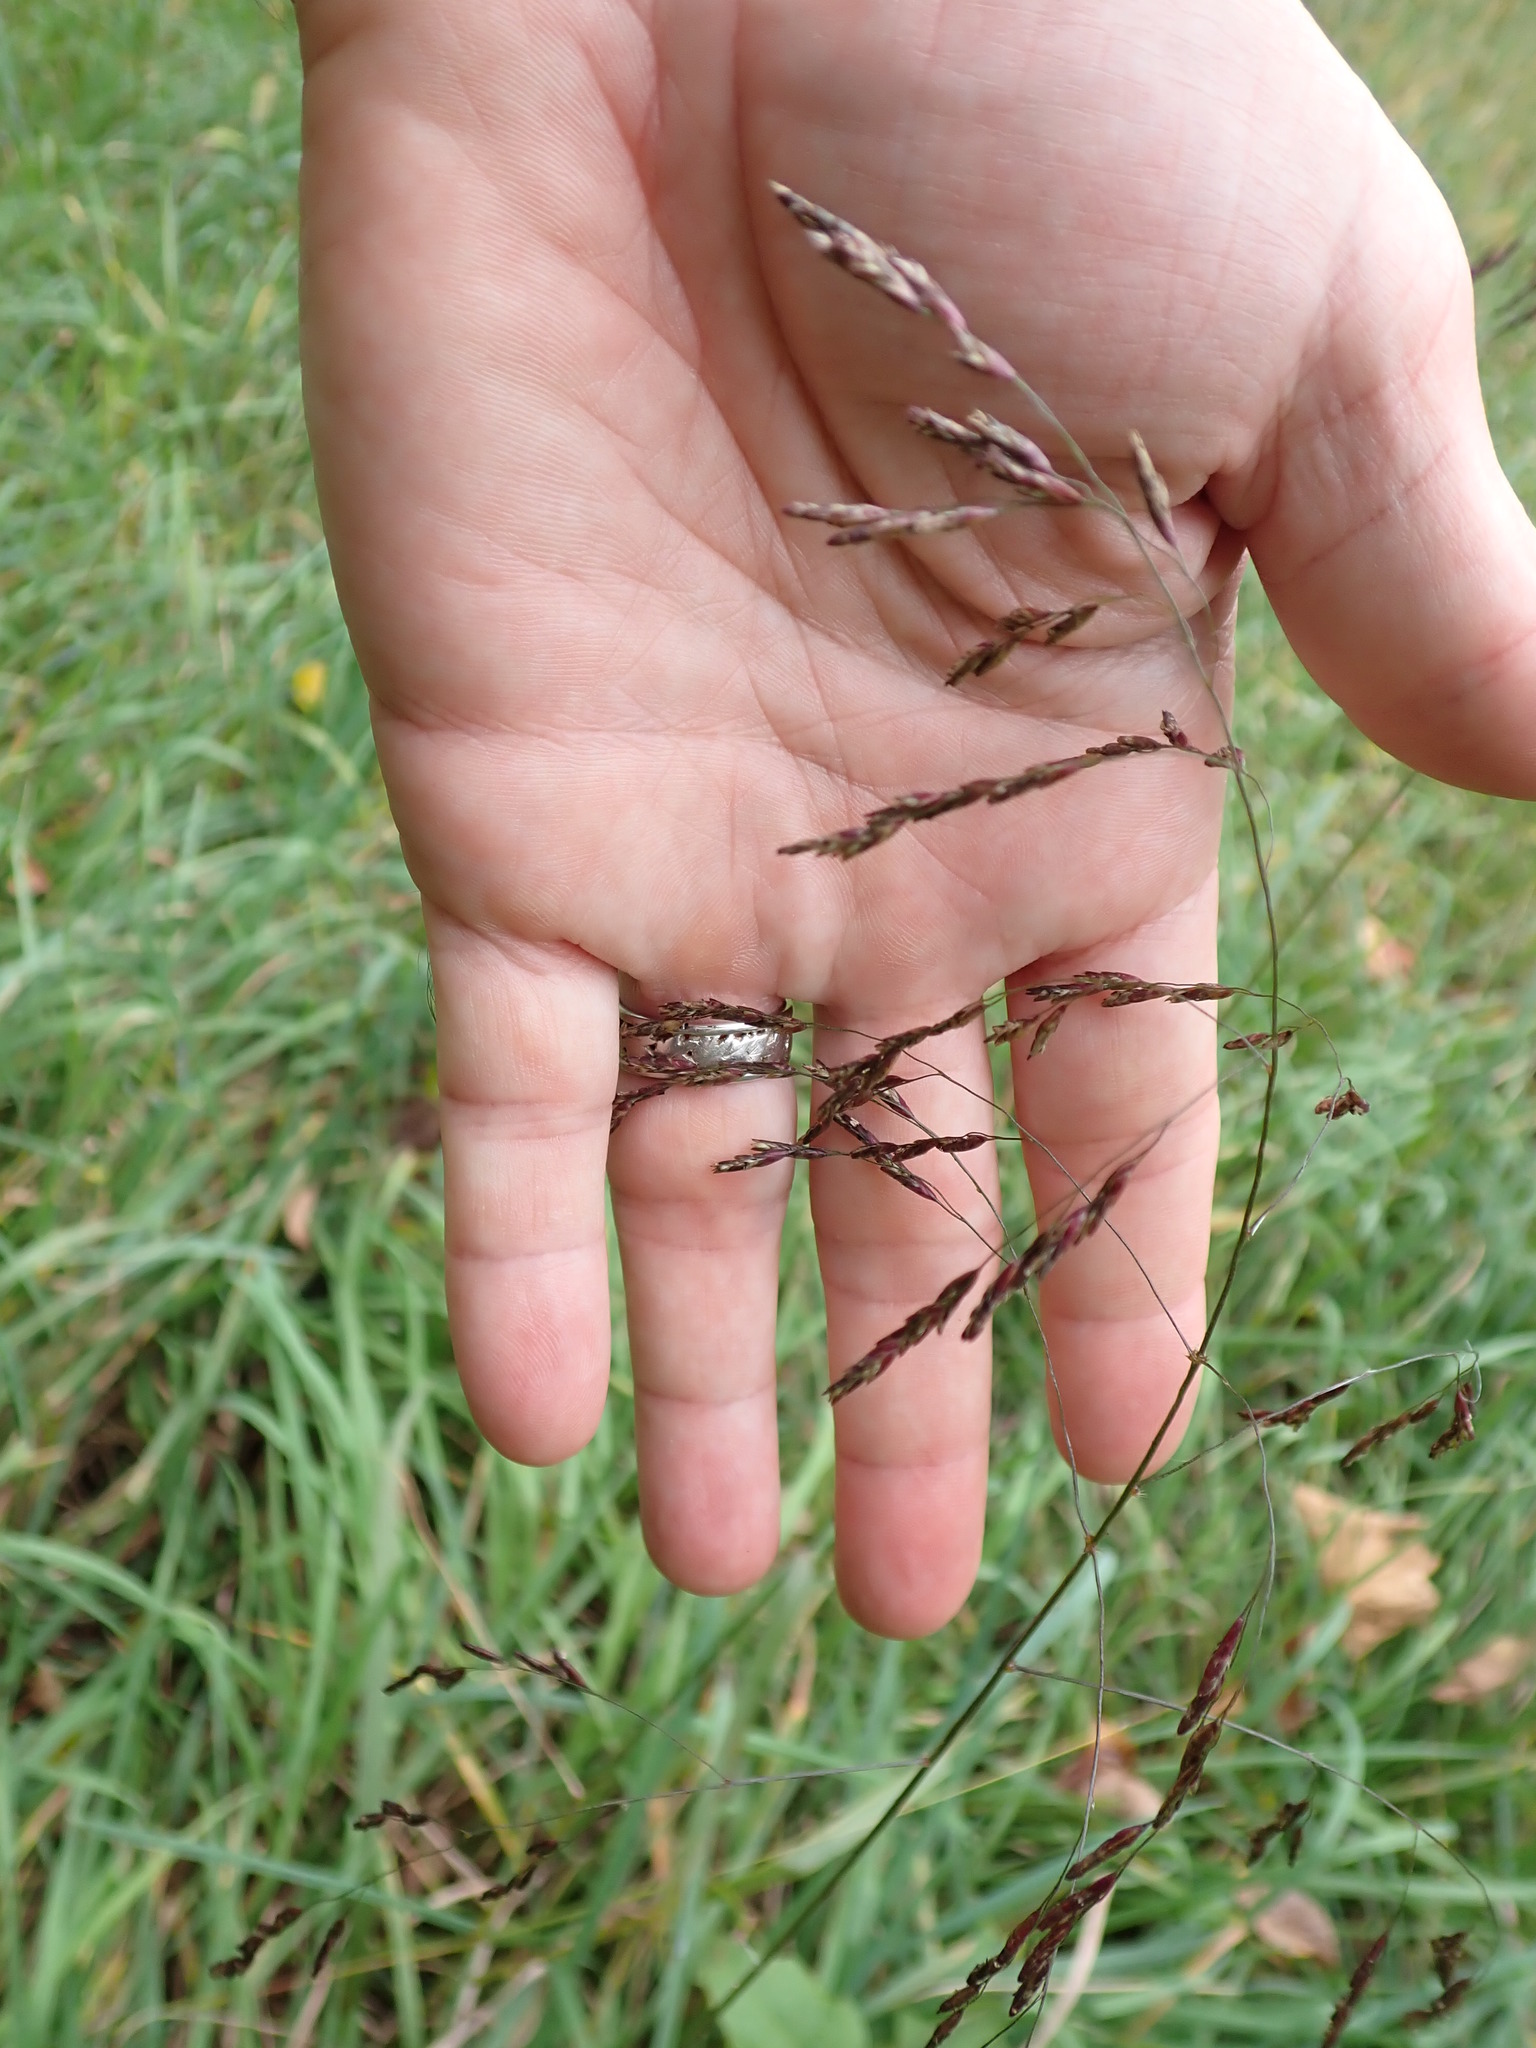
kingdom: Plantae
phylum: Tracheophyta
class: Liliopsida
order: Poales
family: Poaceae
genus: Tridens
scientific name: Tridens flavus
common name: Purpletop
